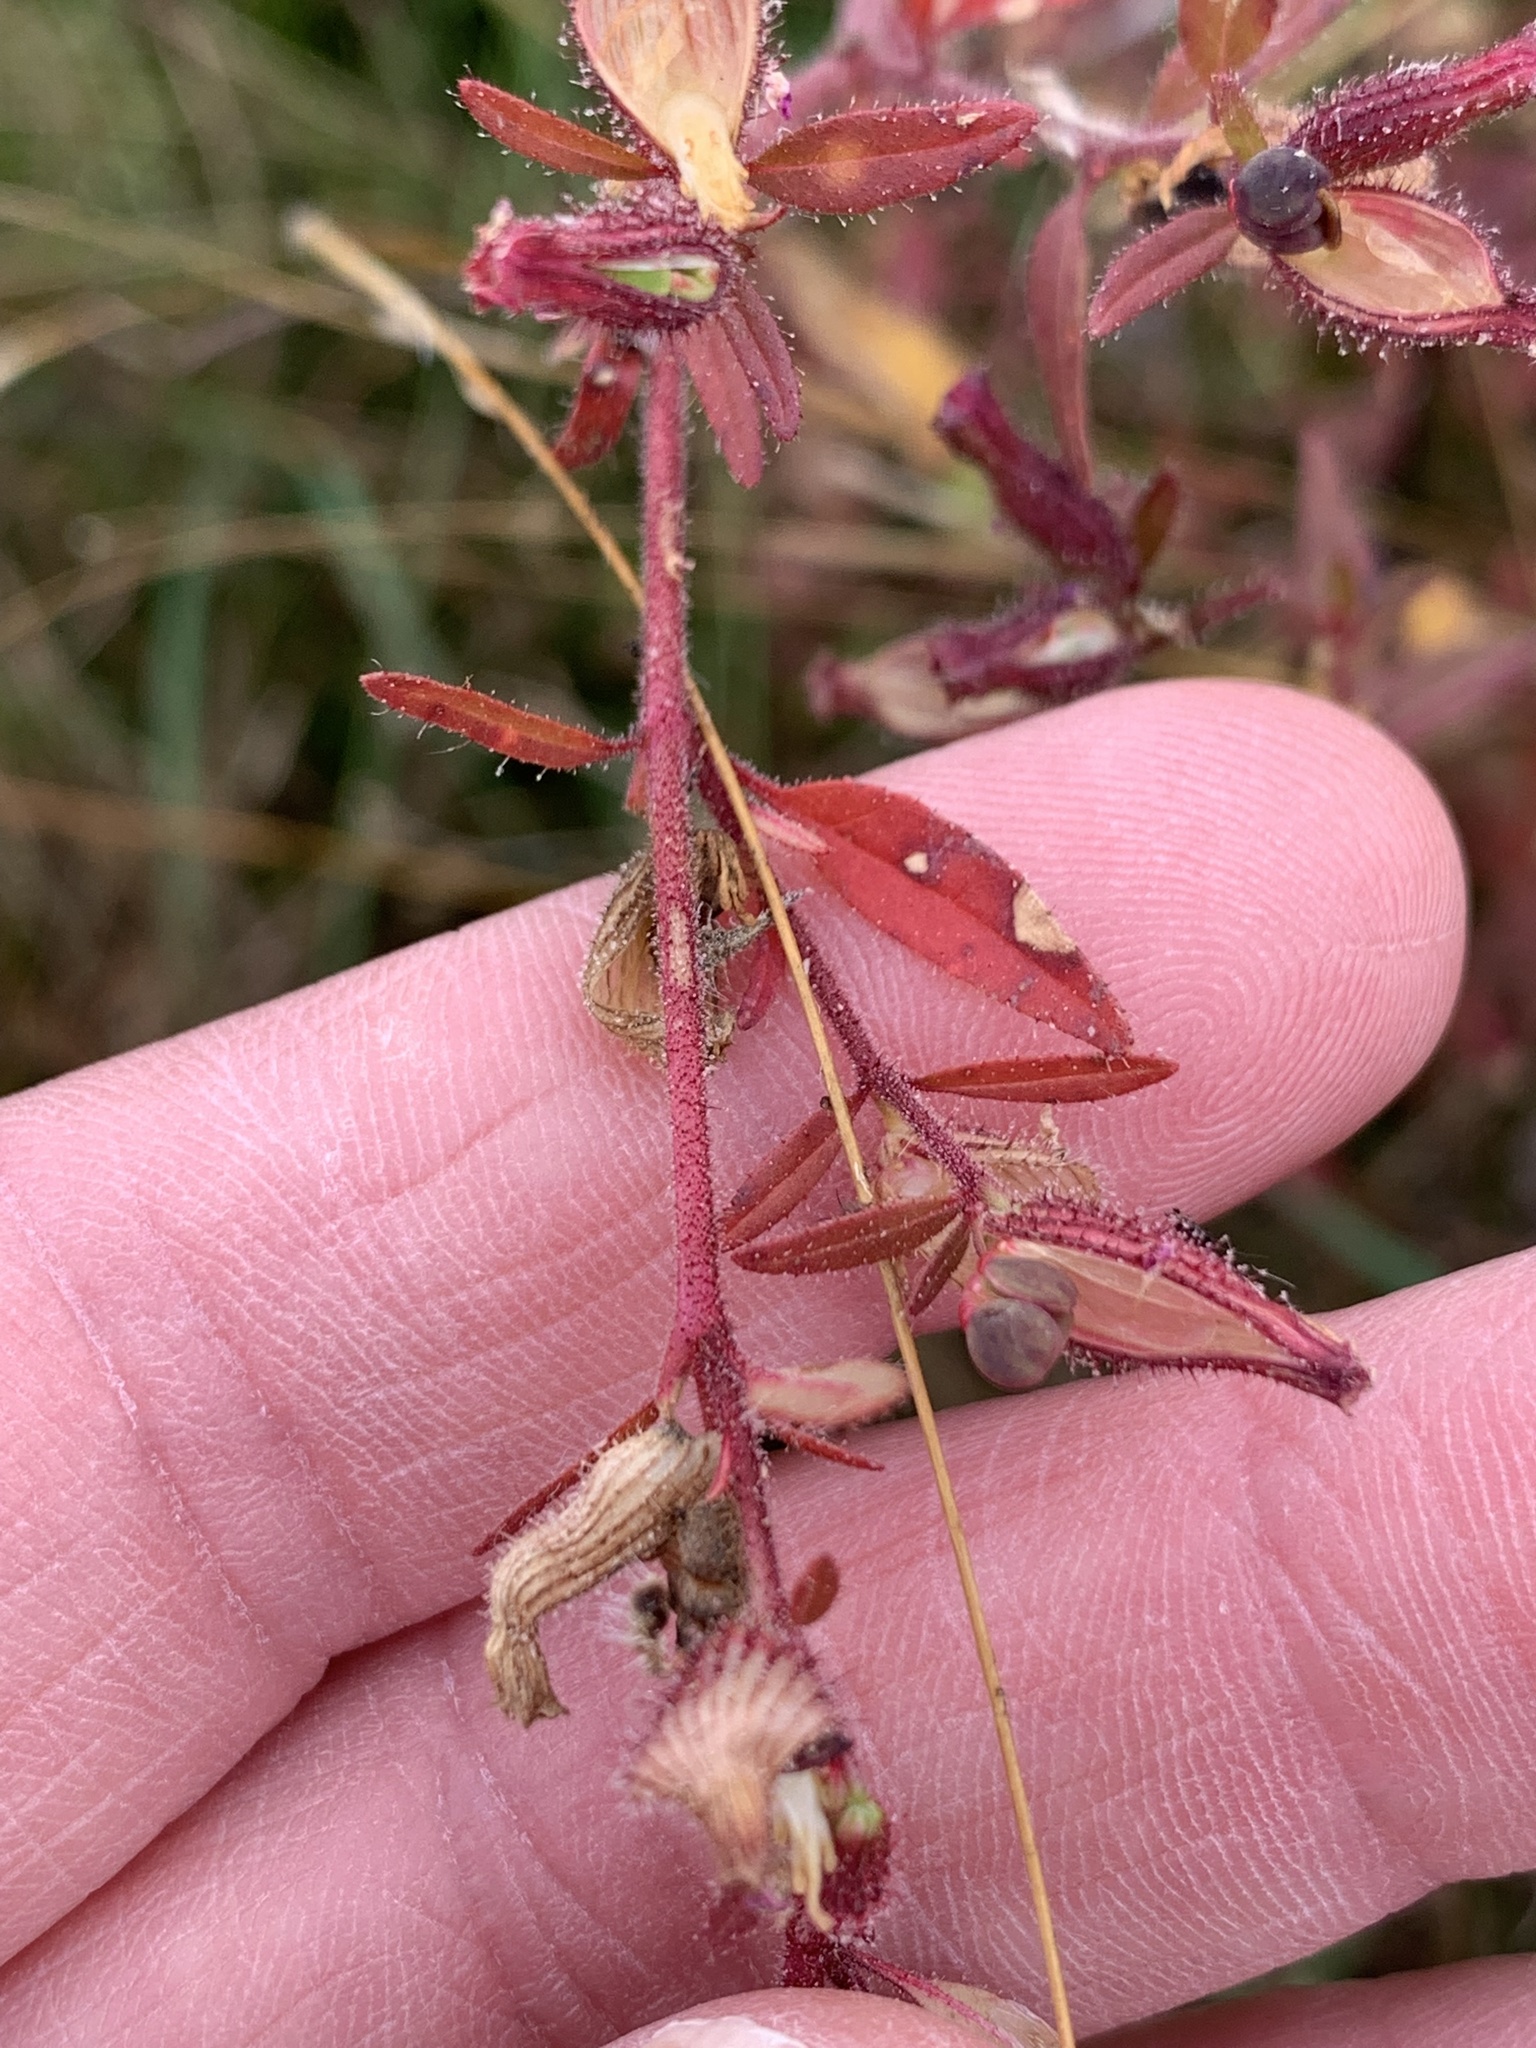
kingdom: Plantae
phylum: Tracheophyta
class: Magnoliopsida
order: Myrtales
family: Lythraceae
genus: Cuphea
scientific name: Cuphea viscosissima
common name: Clammy cuphea
